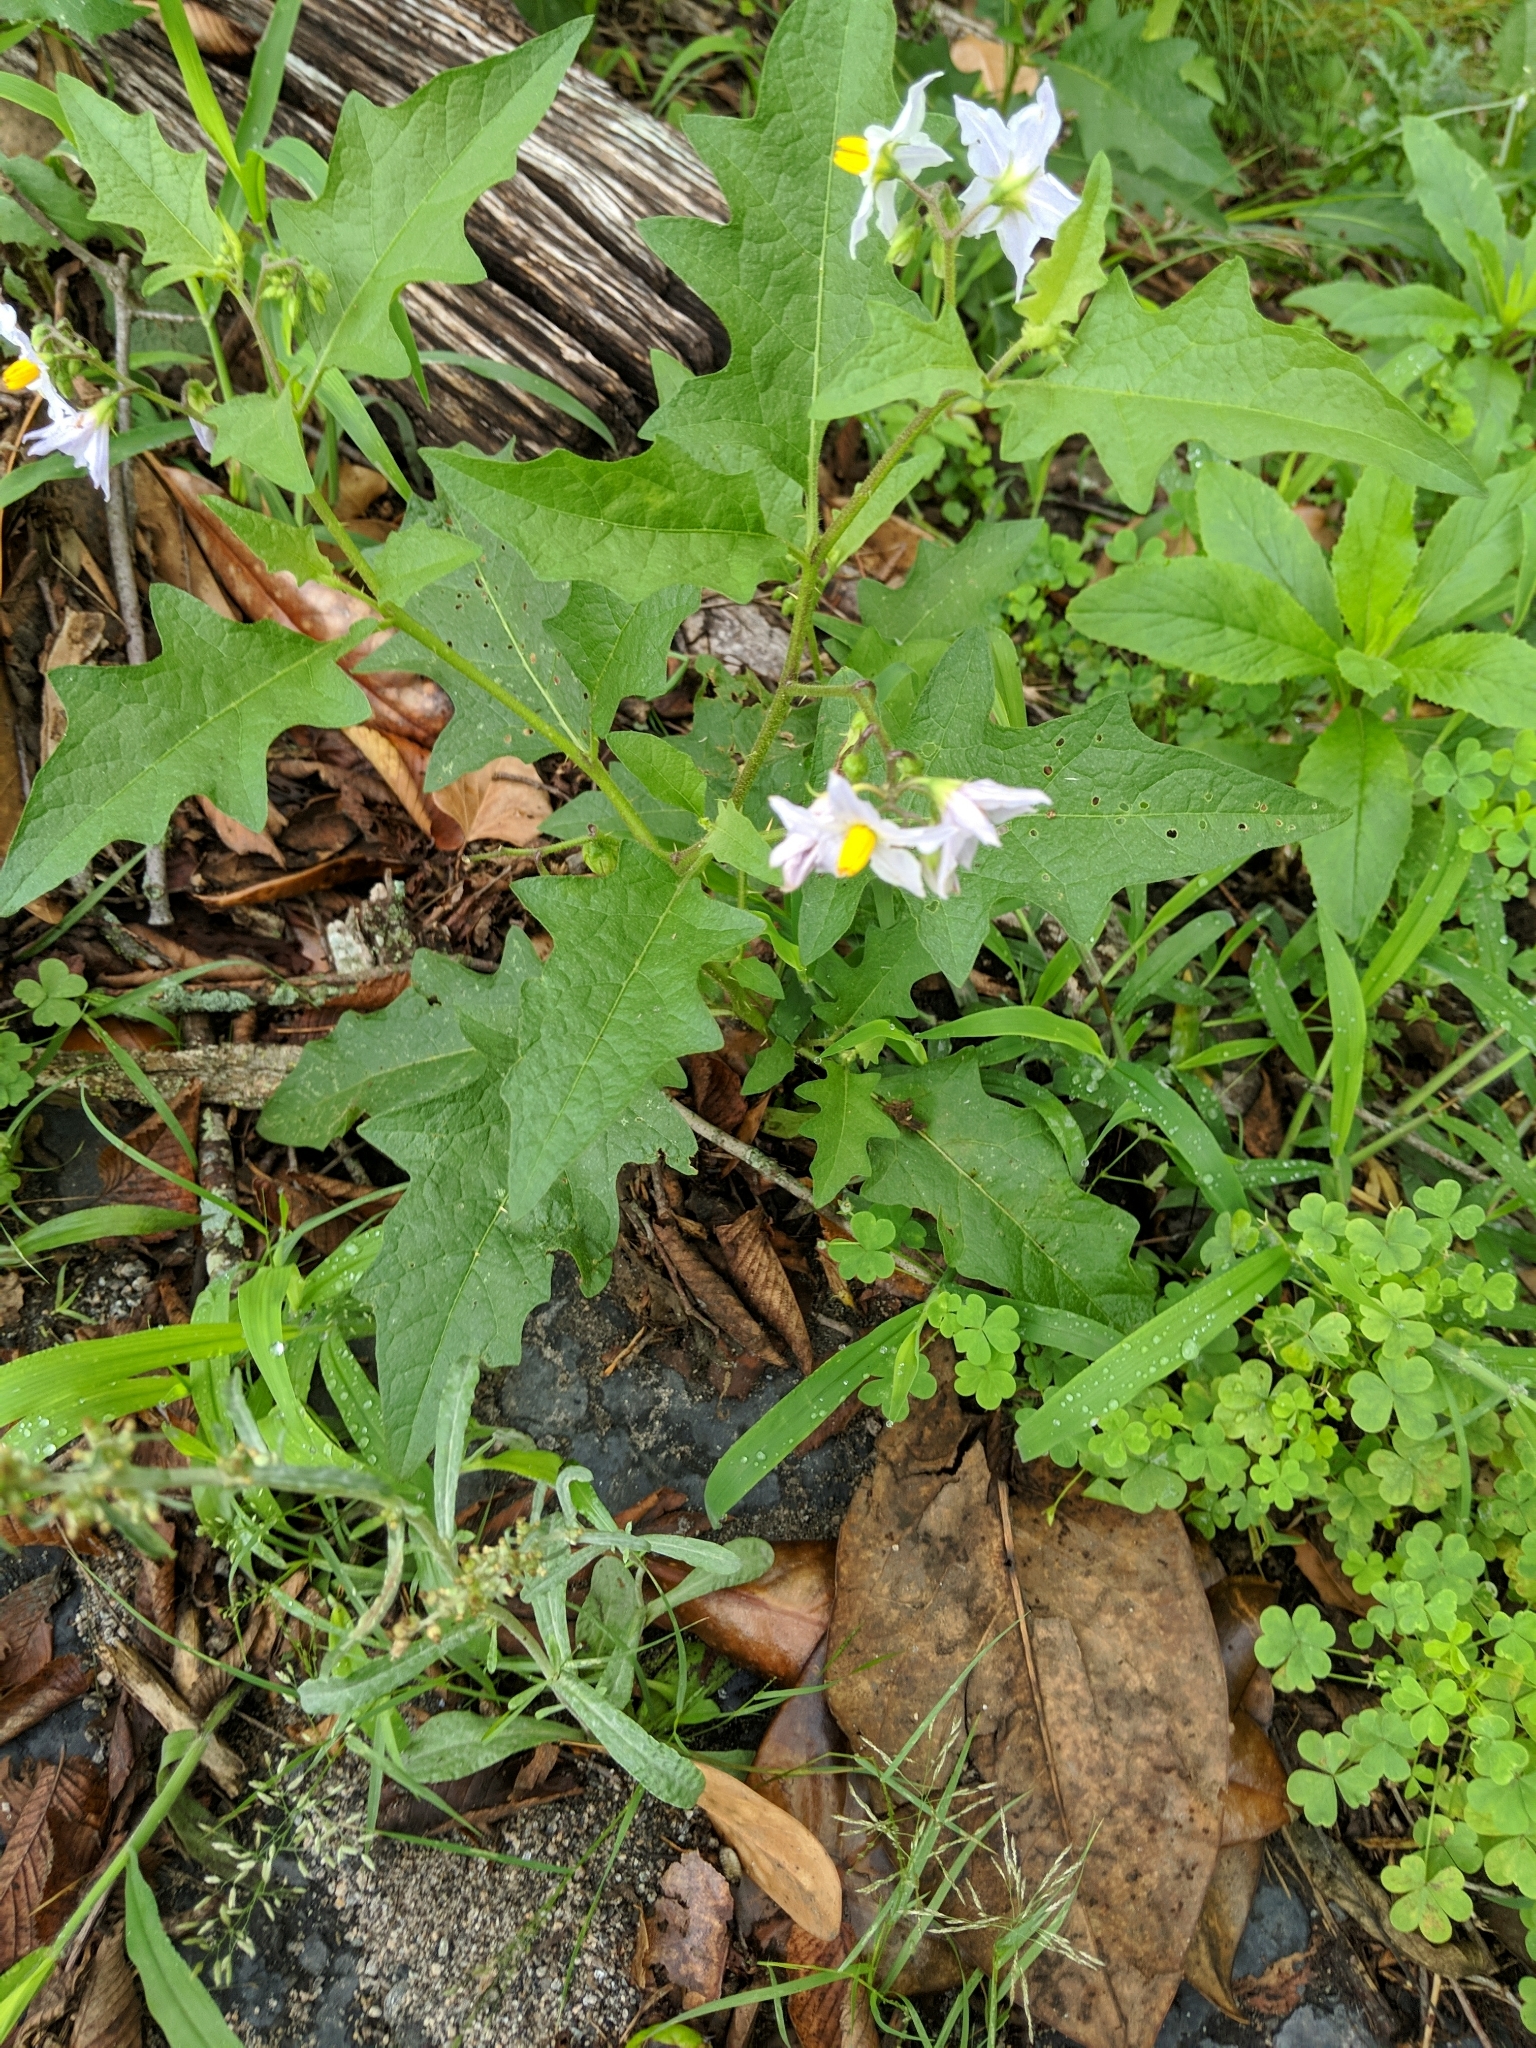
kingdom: Plantae
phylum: Tracheophyta
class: Magnoliopsida
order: Solanales
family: Solanaceae
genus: Solanum
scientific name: Solanum carolinense
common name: Horse-nettle
